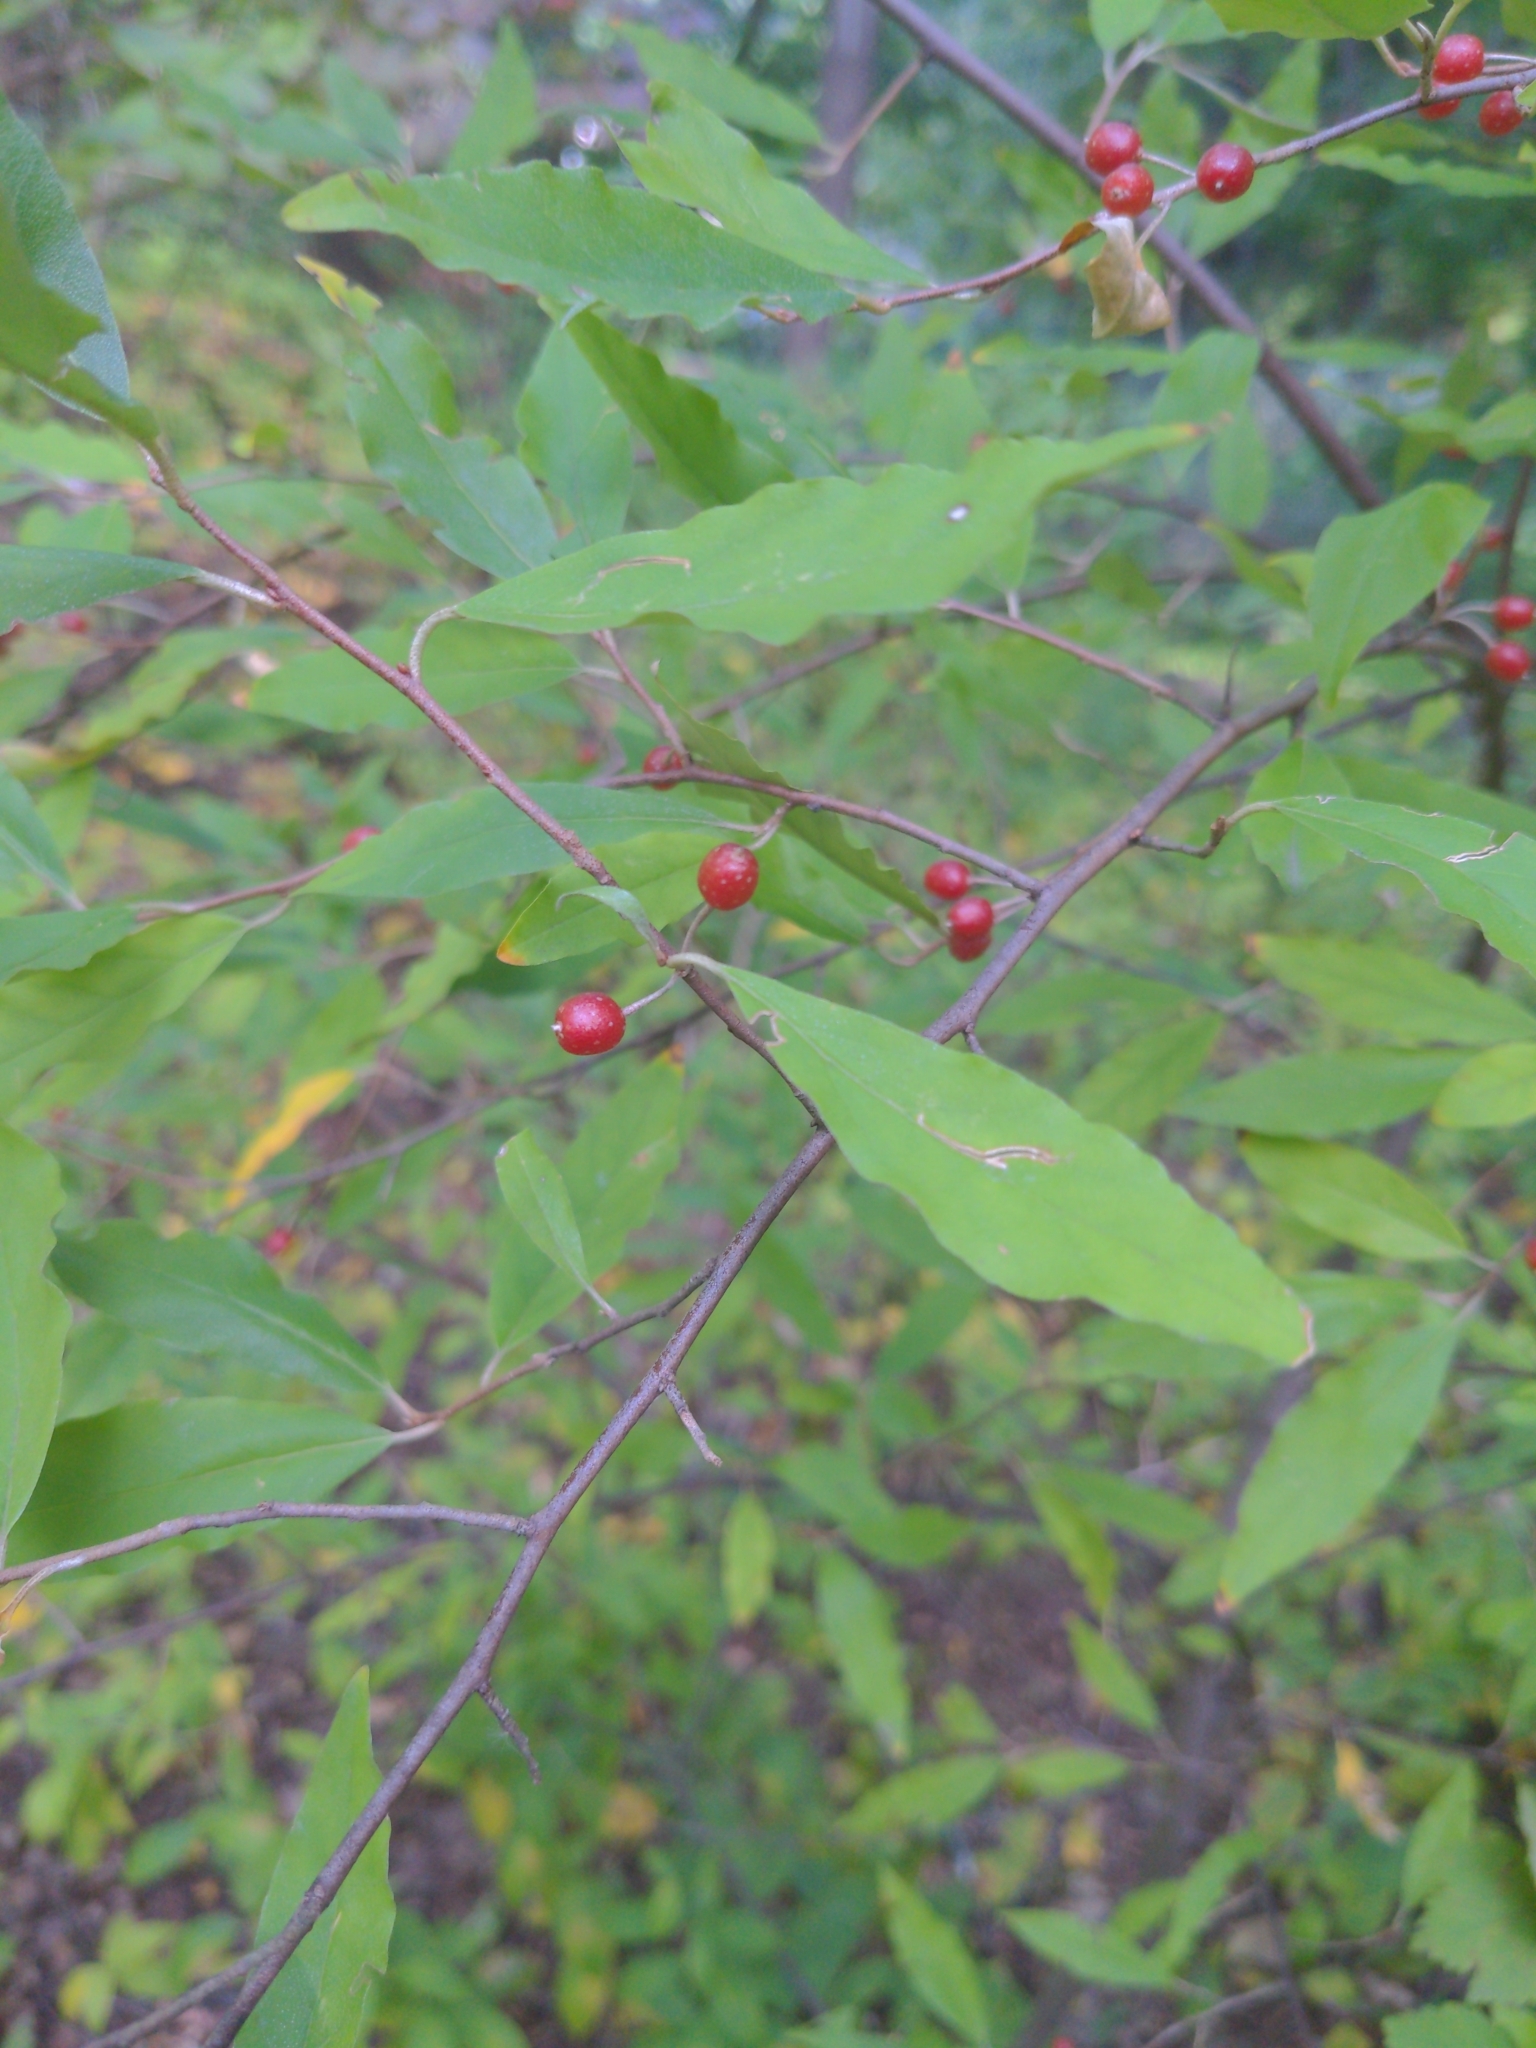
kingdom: Plantae
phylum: Tracheophyta
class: Magnoliopsida
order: Rosales
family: Elaeagnaceae
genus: Elaeagnus
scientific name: Elaeagnus umbellata
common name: Autumn olive
